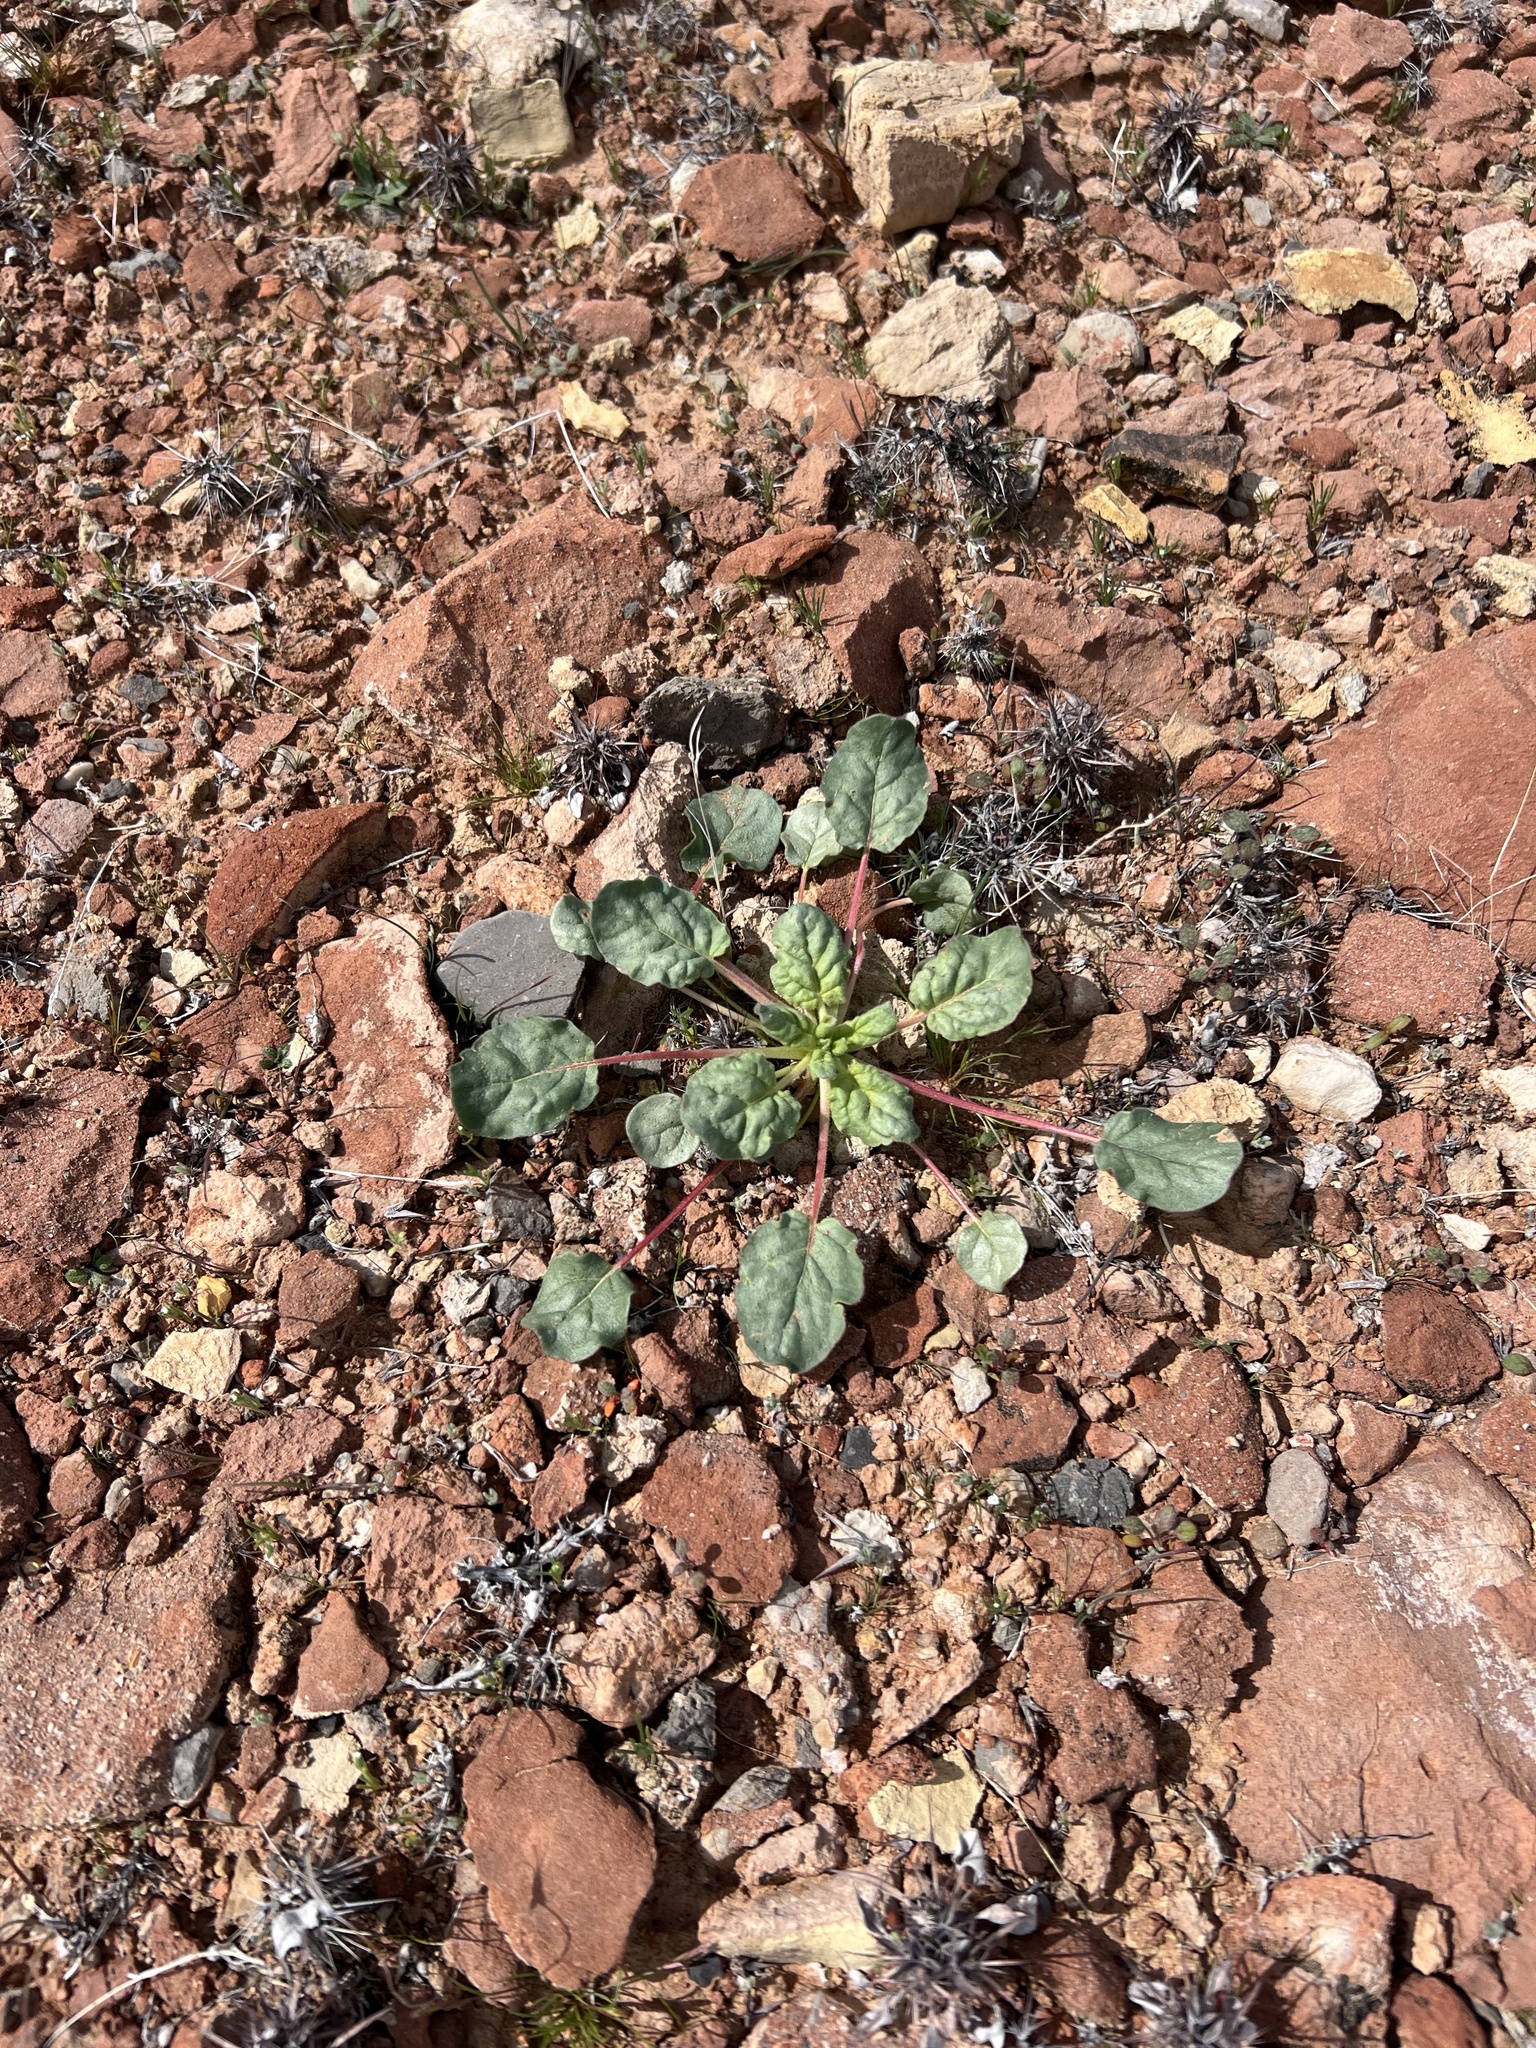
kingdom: Plantae
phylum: Tracheophyta
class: Magnoliopsida
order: Caryophyllales
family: Polygonaceae
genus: Eriogonum
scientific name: Eriogonum inflatum
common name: Desert trumpet
